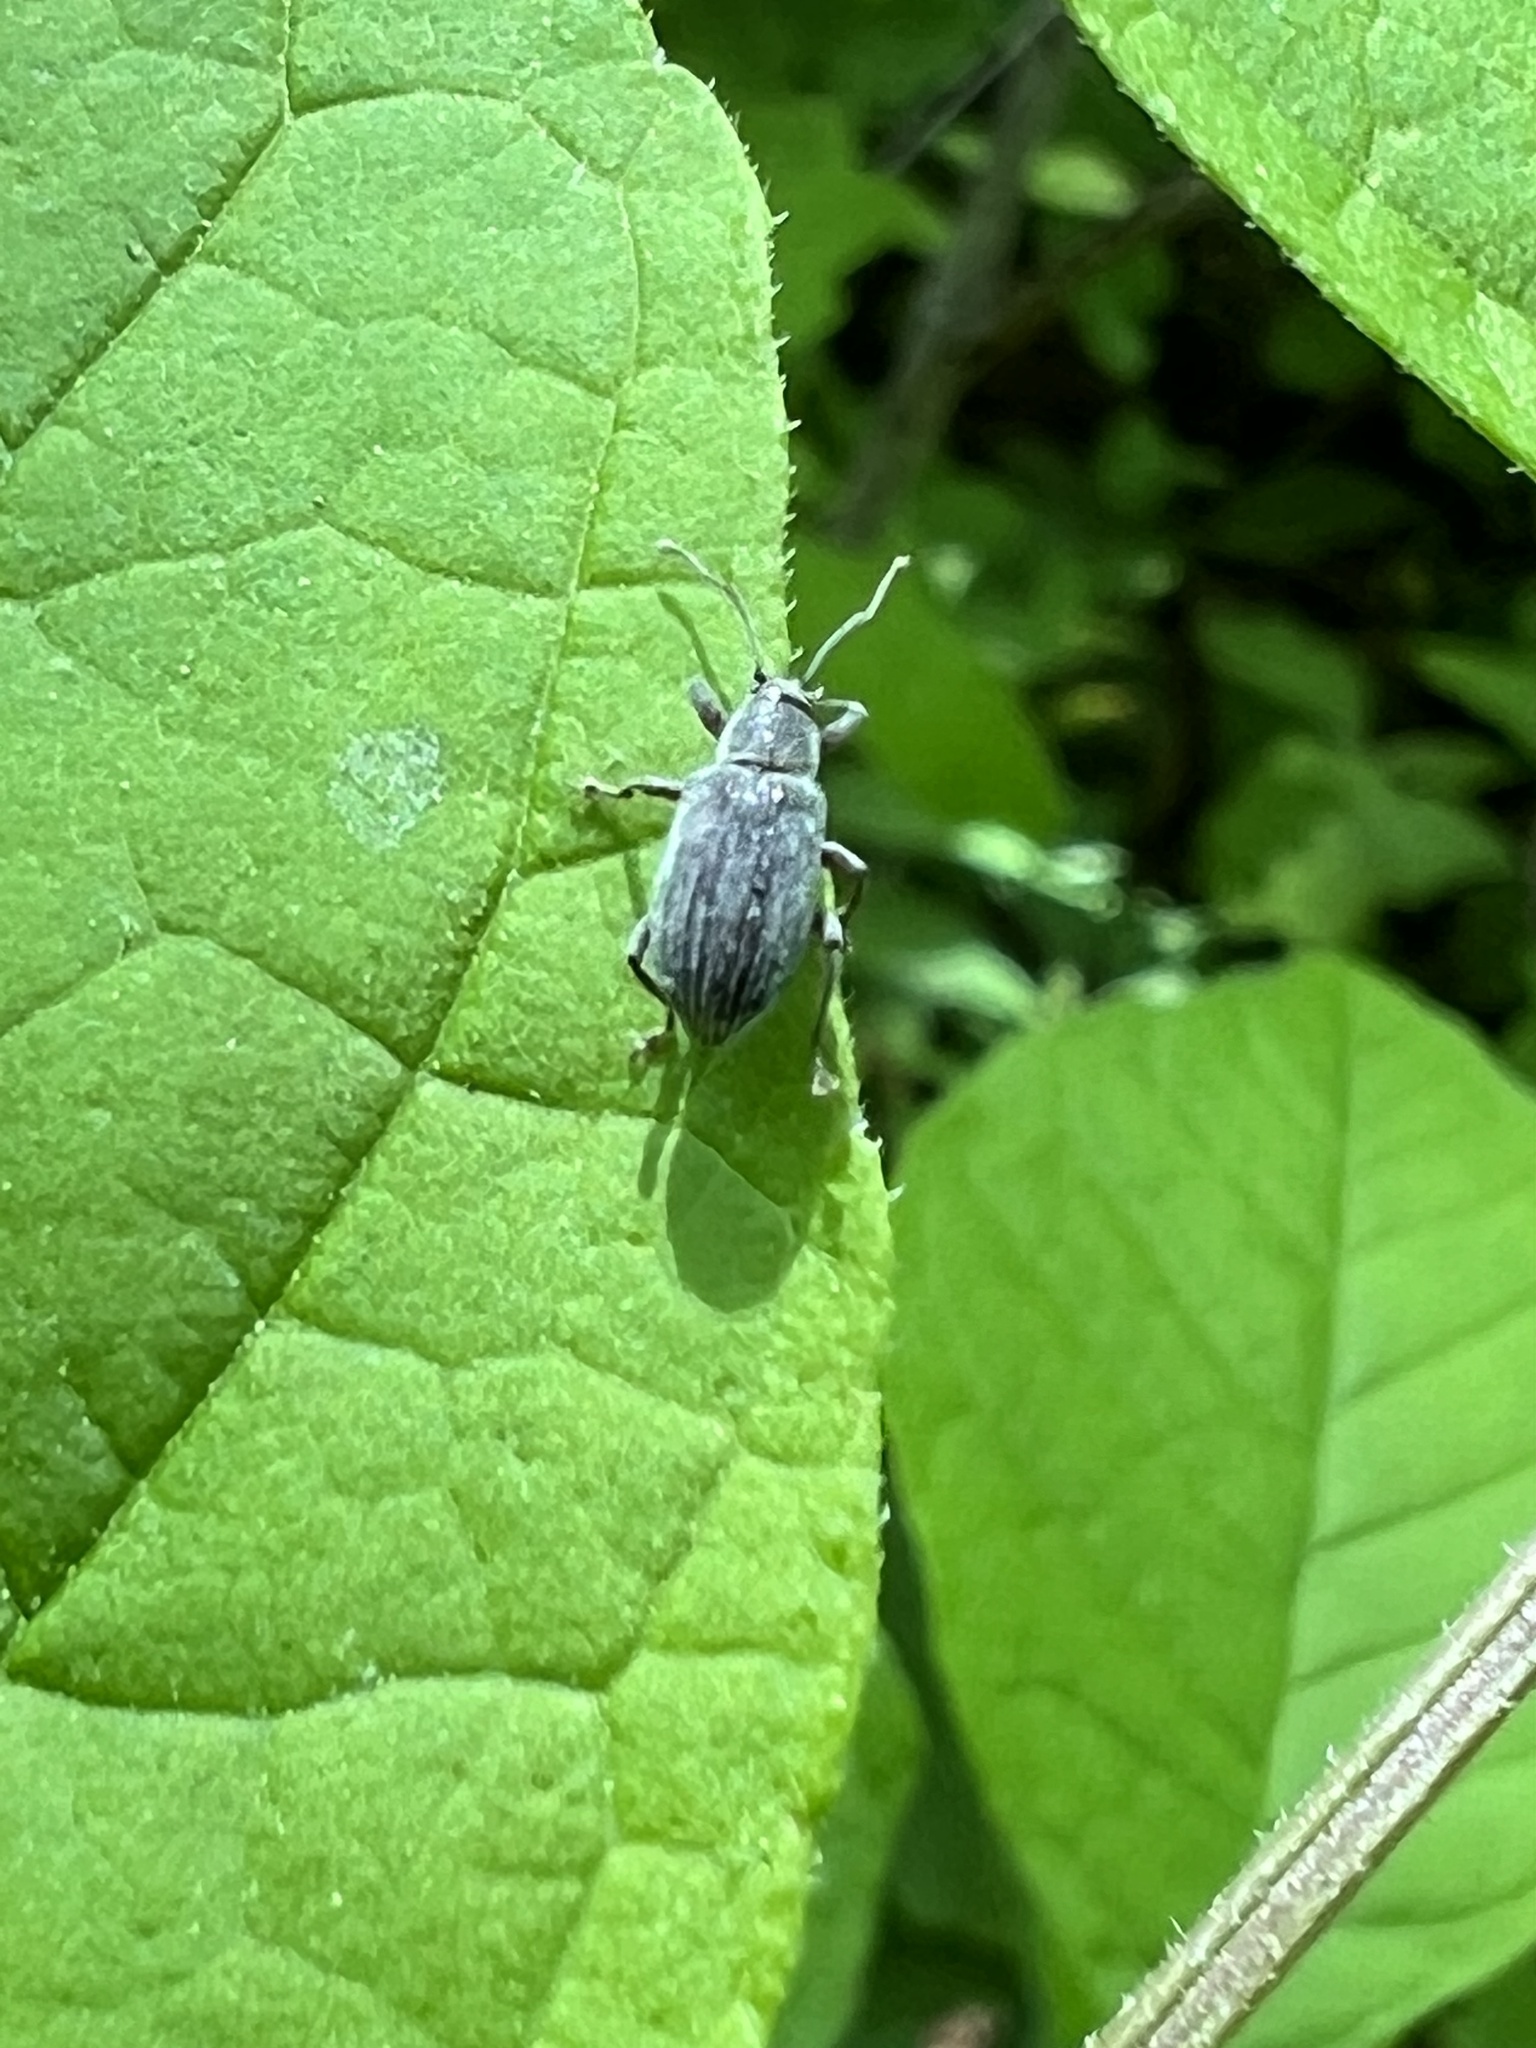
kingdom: Animalia
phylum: Arthropoda
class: Insecta
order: Coleoptera
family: Curculionidae
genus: Cyrtepistomus
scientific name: Cyrtepistomus castaneus
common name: Weevil
